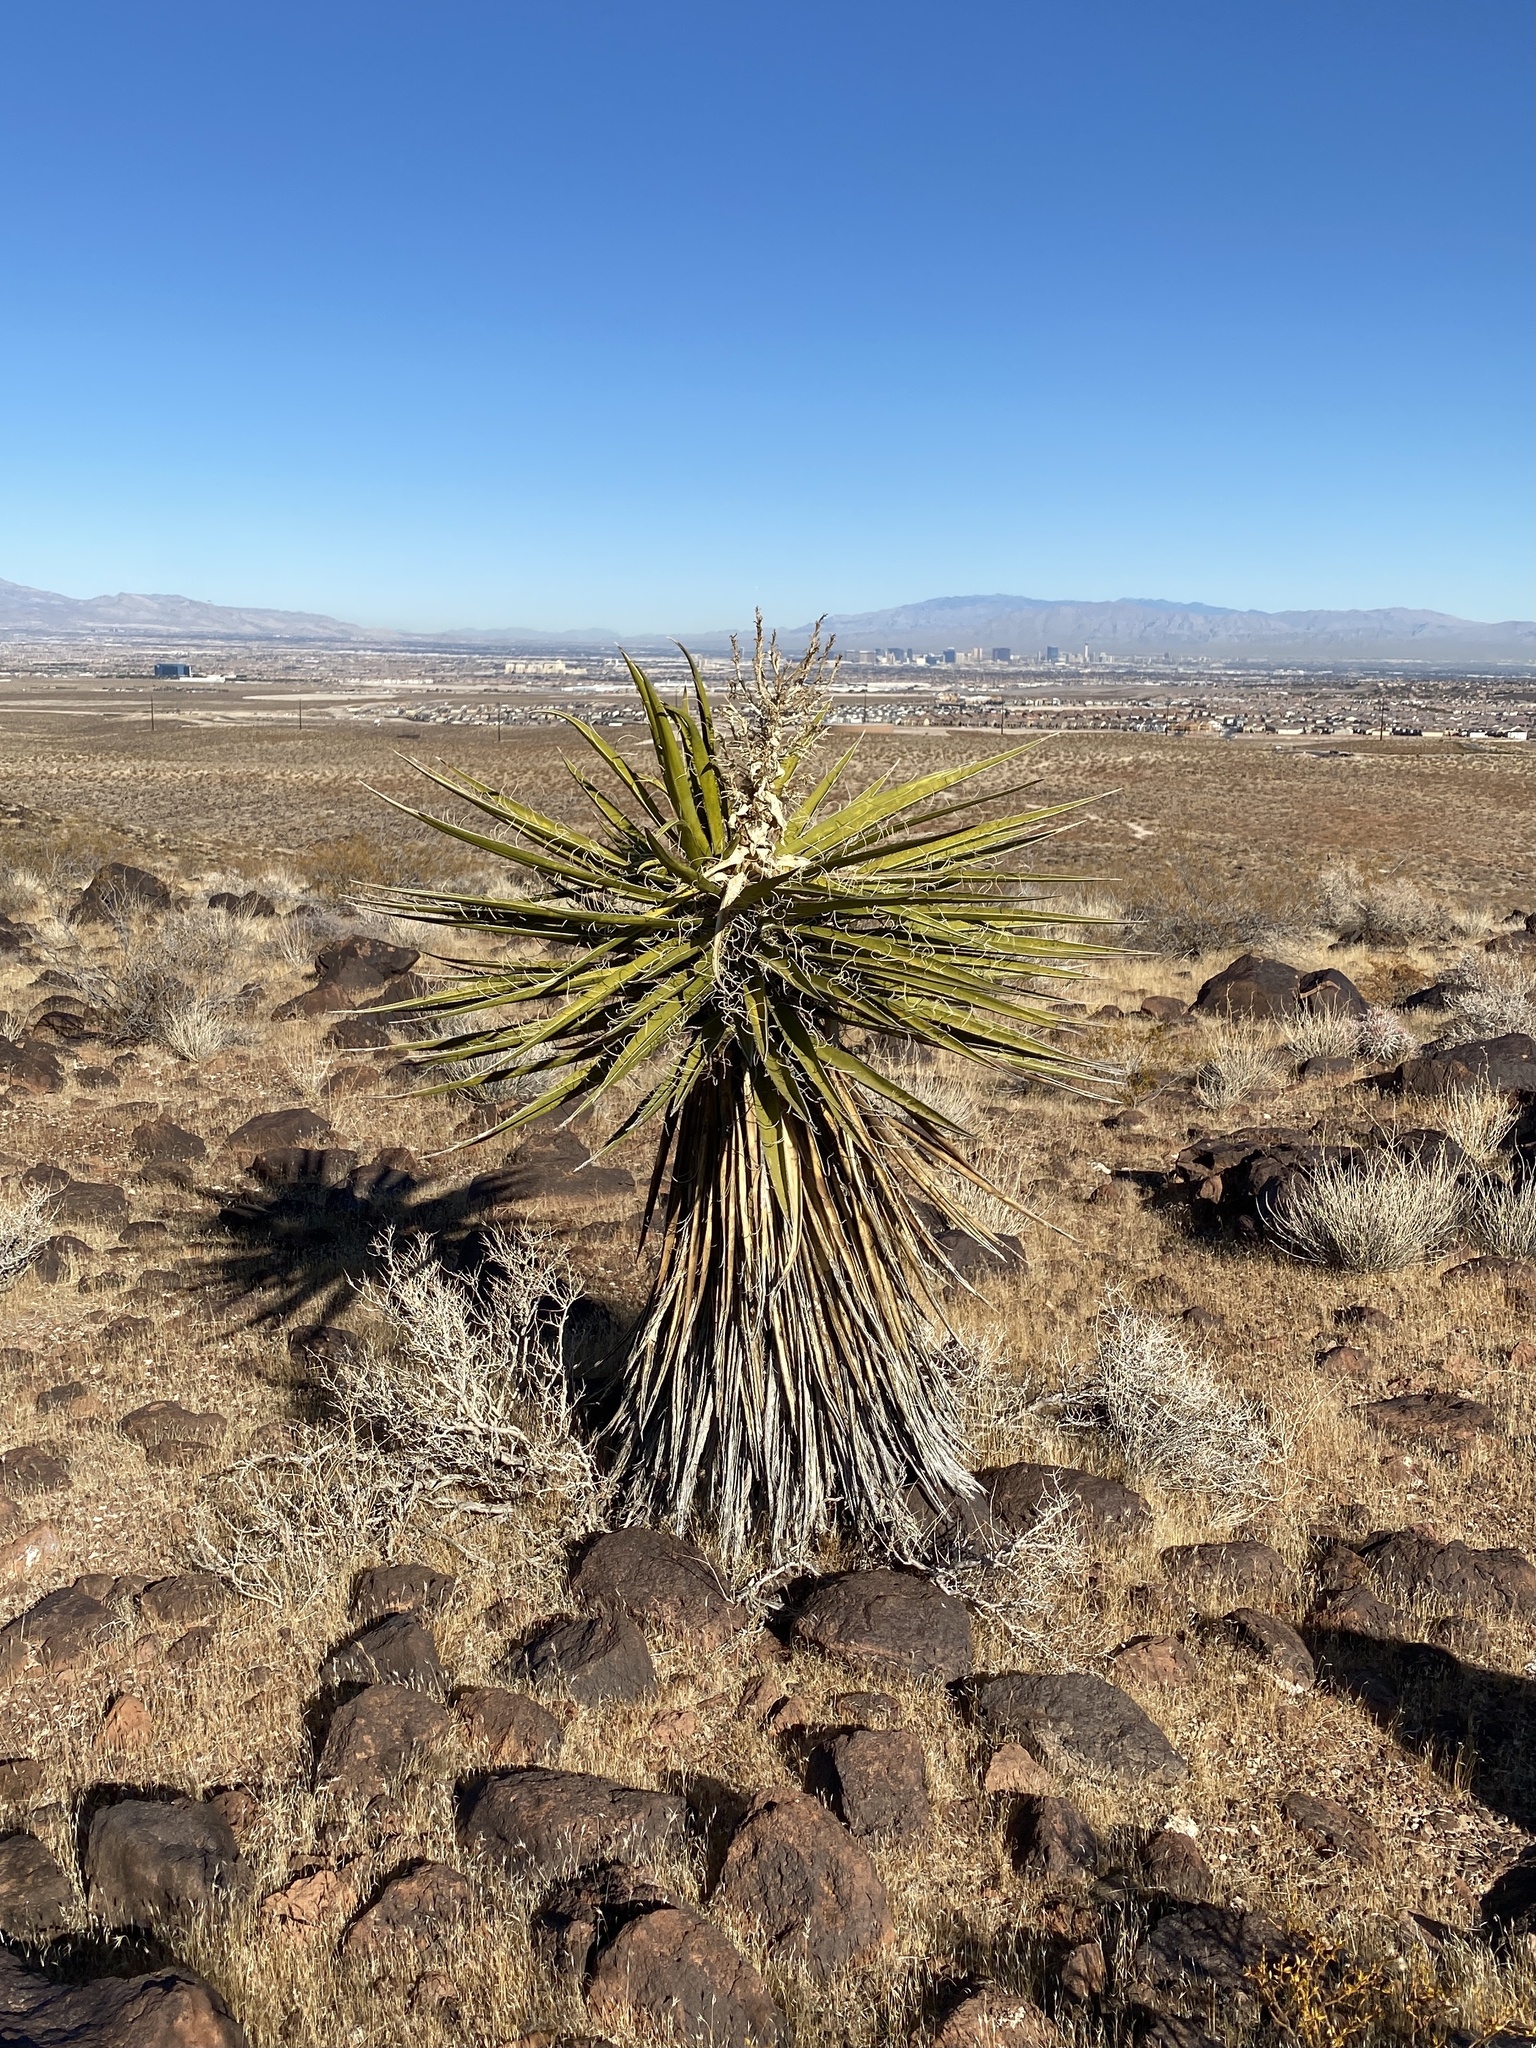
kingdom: Plantae
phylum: Tracheophyta
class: Liliopsida
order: Asparagales
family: Asparagaceae
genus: Yucca
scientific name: Yucca schidigera
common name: Mojave yucca
